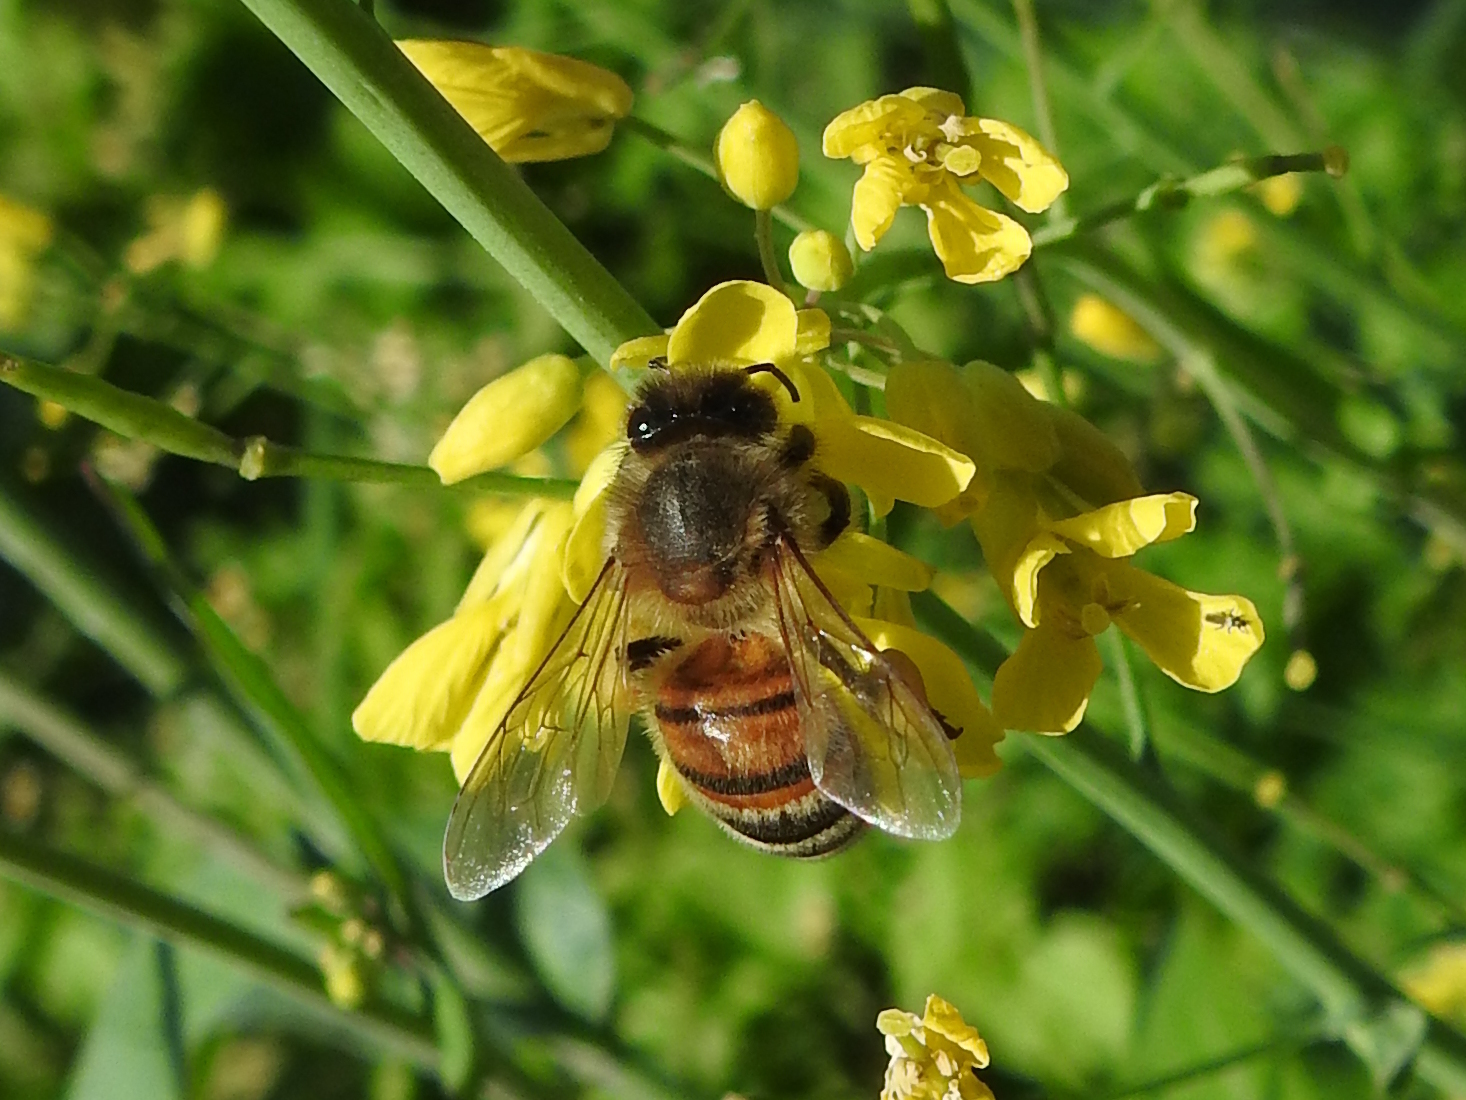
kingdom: Animalia
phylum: Arthropoda
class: Insecta
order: Hymenoptera
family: Apidae
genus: Apis
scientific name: Apis mellifera
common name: Honey bee
